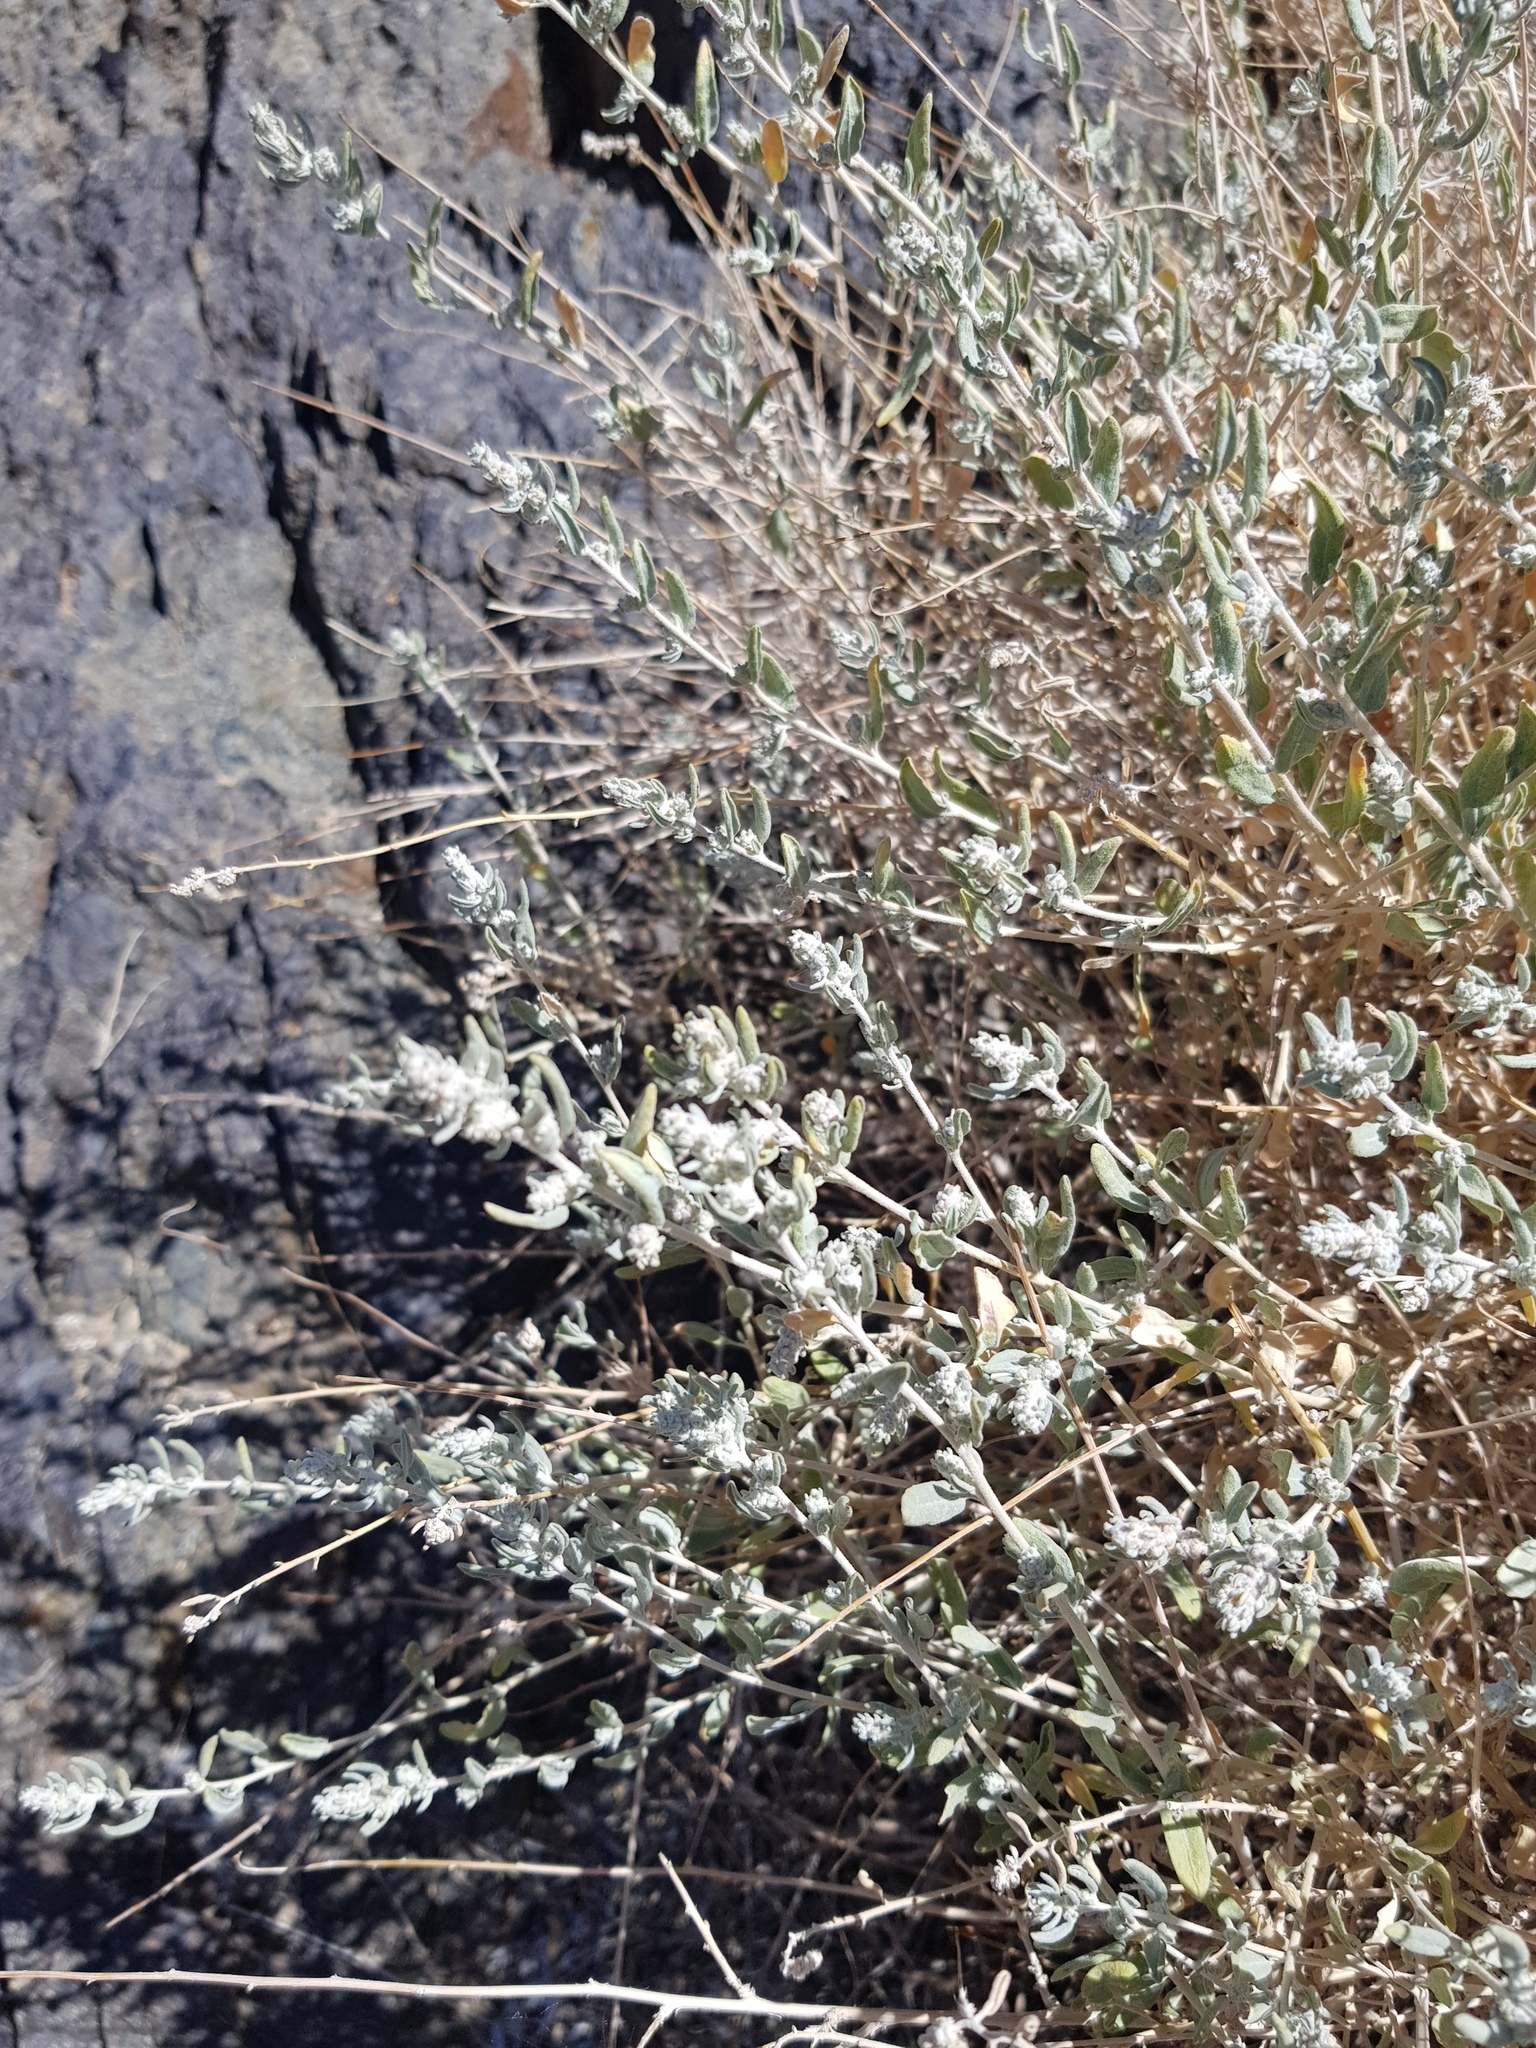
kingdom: Plantae
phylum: Tracheophyta
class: Magnoliopsida
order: Caryophyllales
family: Amaranthaceae
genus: Krascheninnikovia
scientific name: Krascheninnikovia ceratoides
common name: Pamirian winterfat
